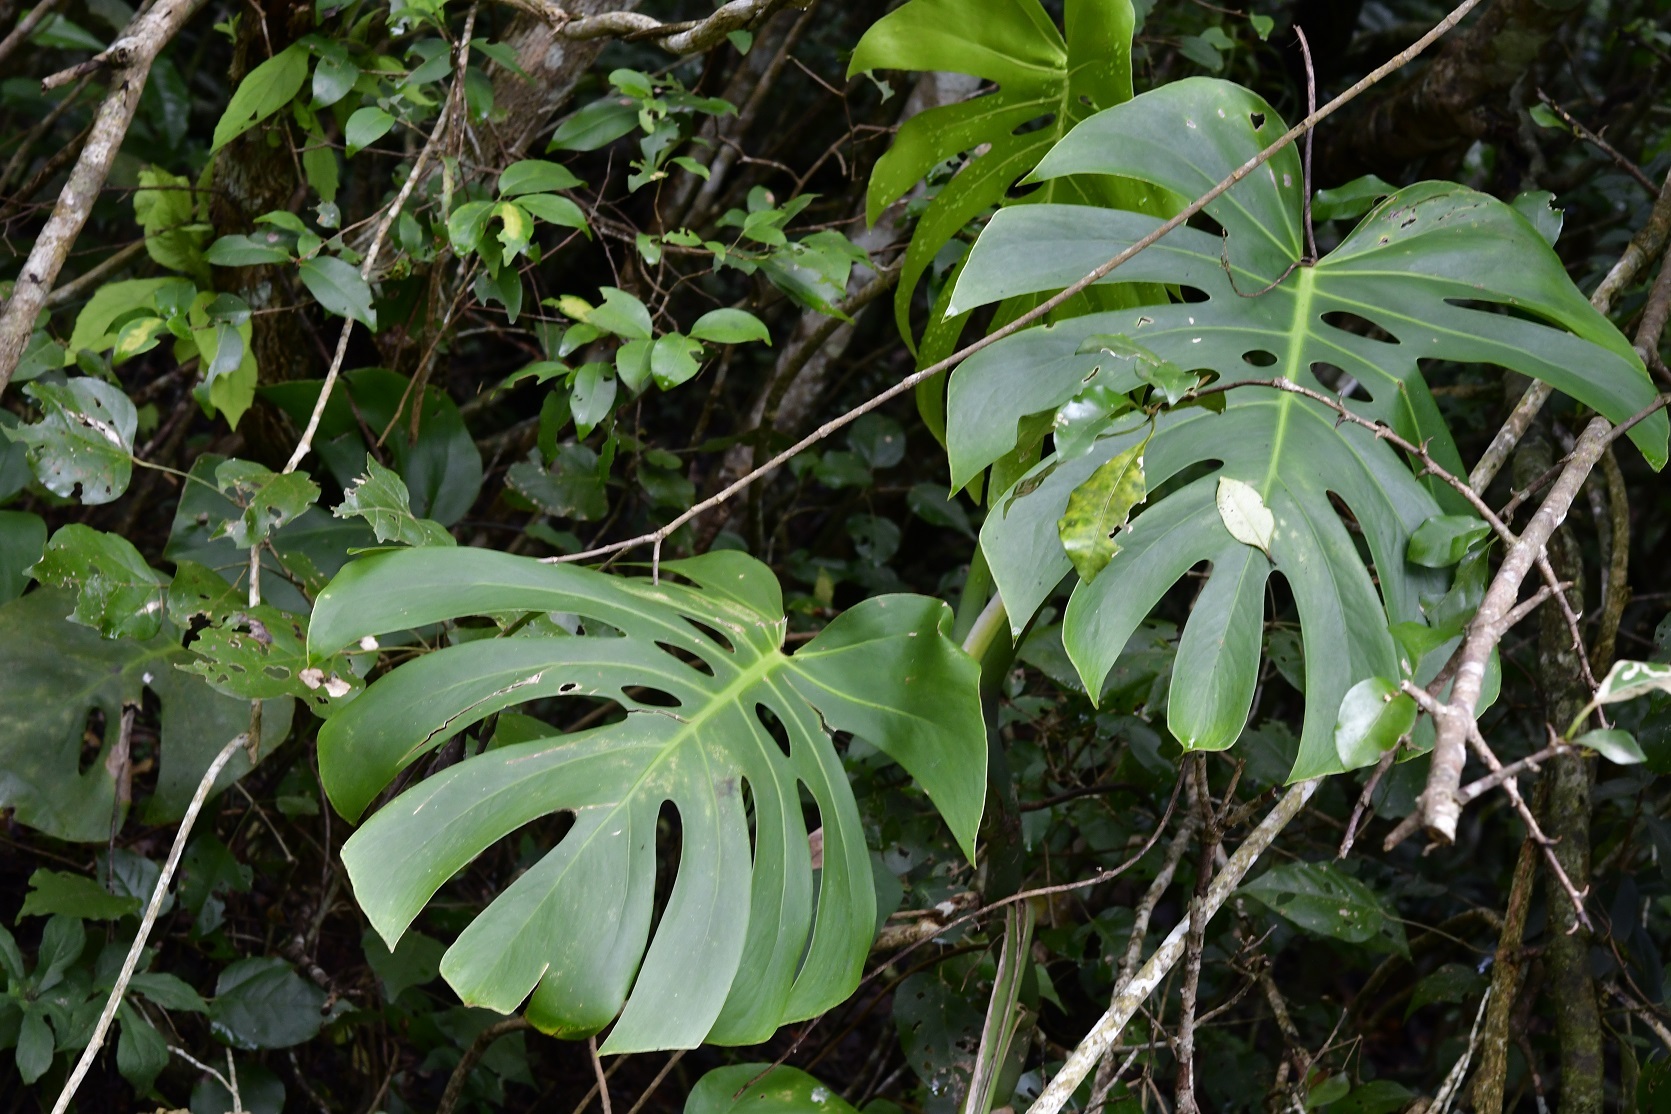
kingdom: Plantae
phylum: Tracheophyta
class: Liliopsida
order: Alismatales
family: Araceae
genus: Monstera
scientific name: Monstera deliciosa
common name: Cut-leaf-philodendron
